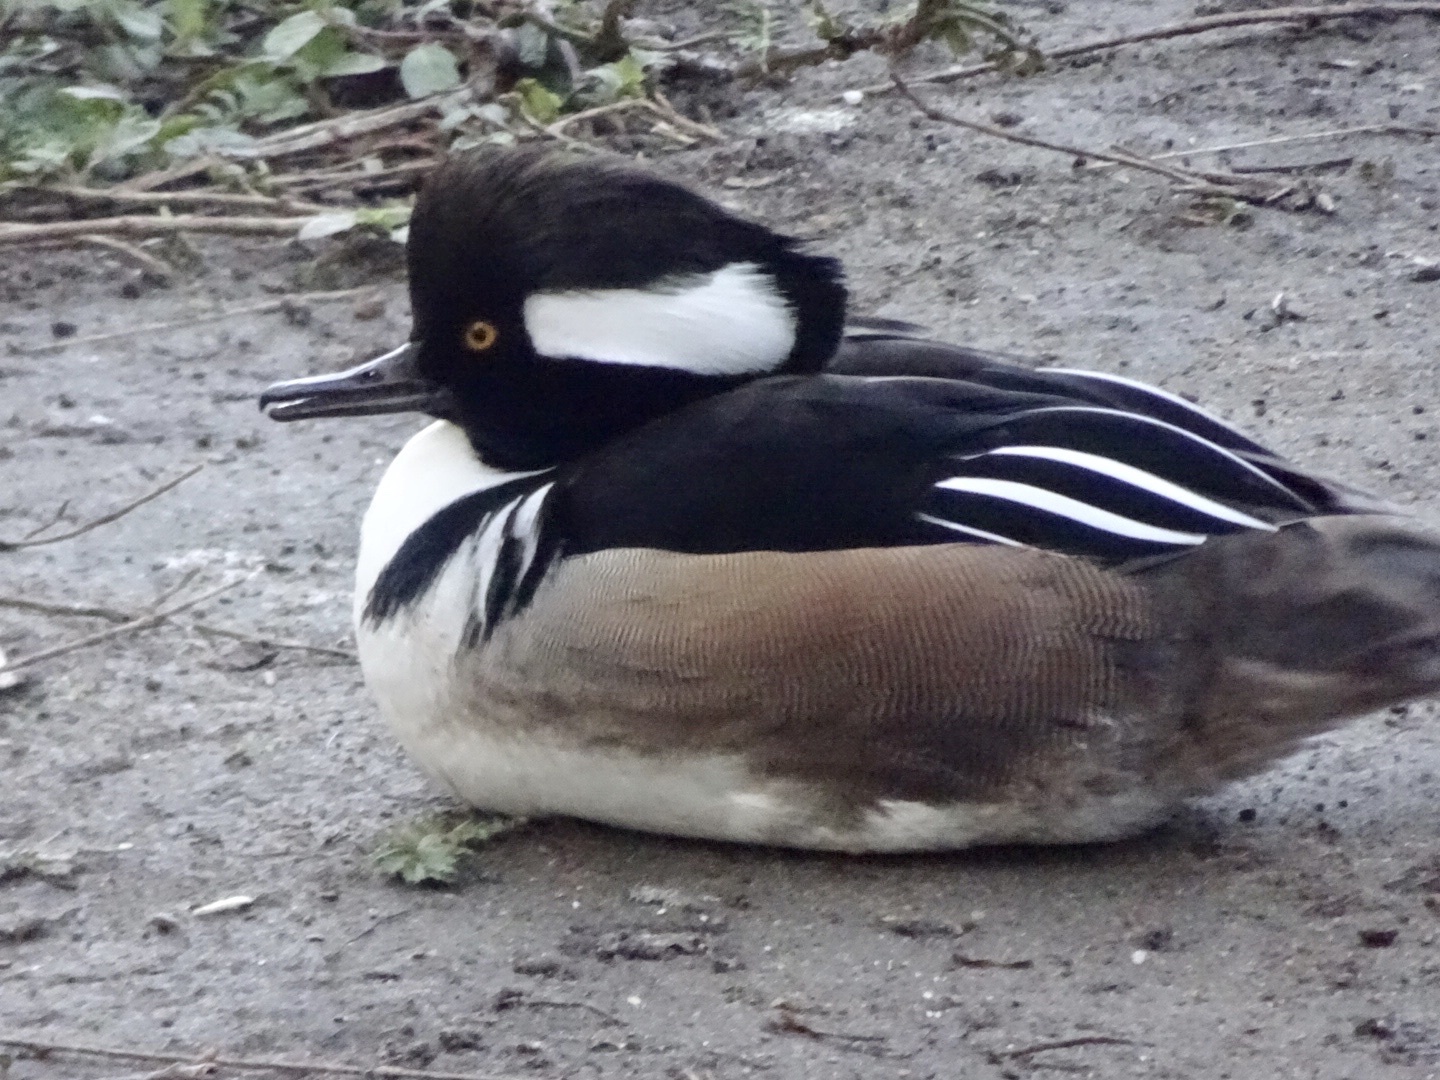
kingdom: Animalia
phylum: Chordata
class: Aves
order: Anseriformes
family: Anatidae
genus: Lophodytes
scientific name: Lophodytes cucullatus
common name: Hooded merganser
